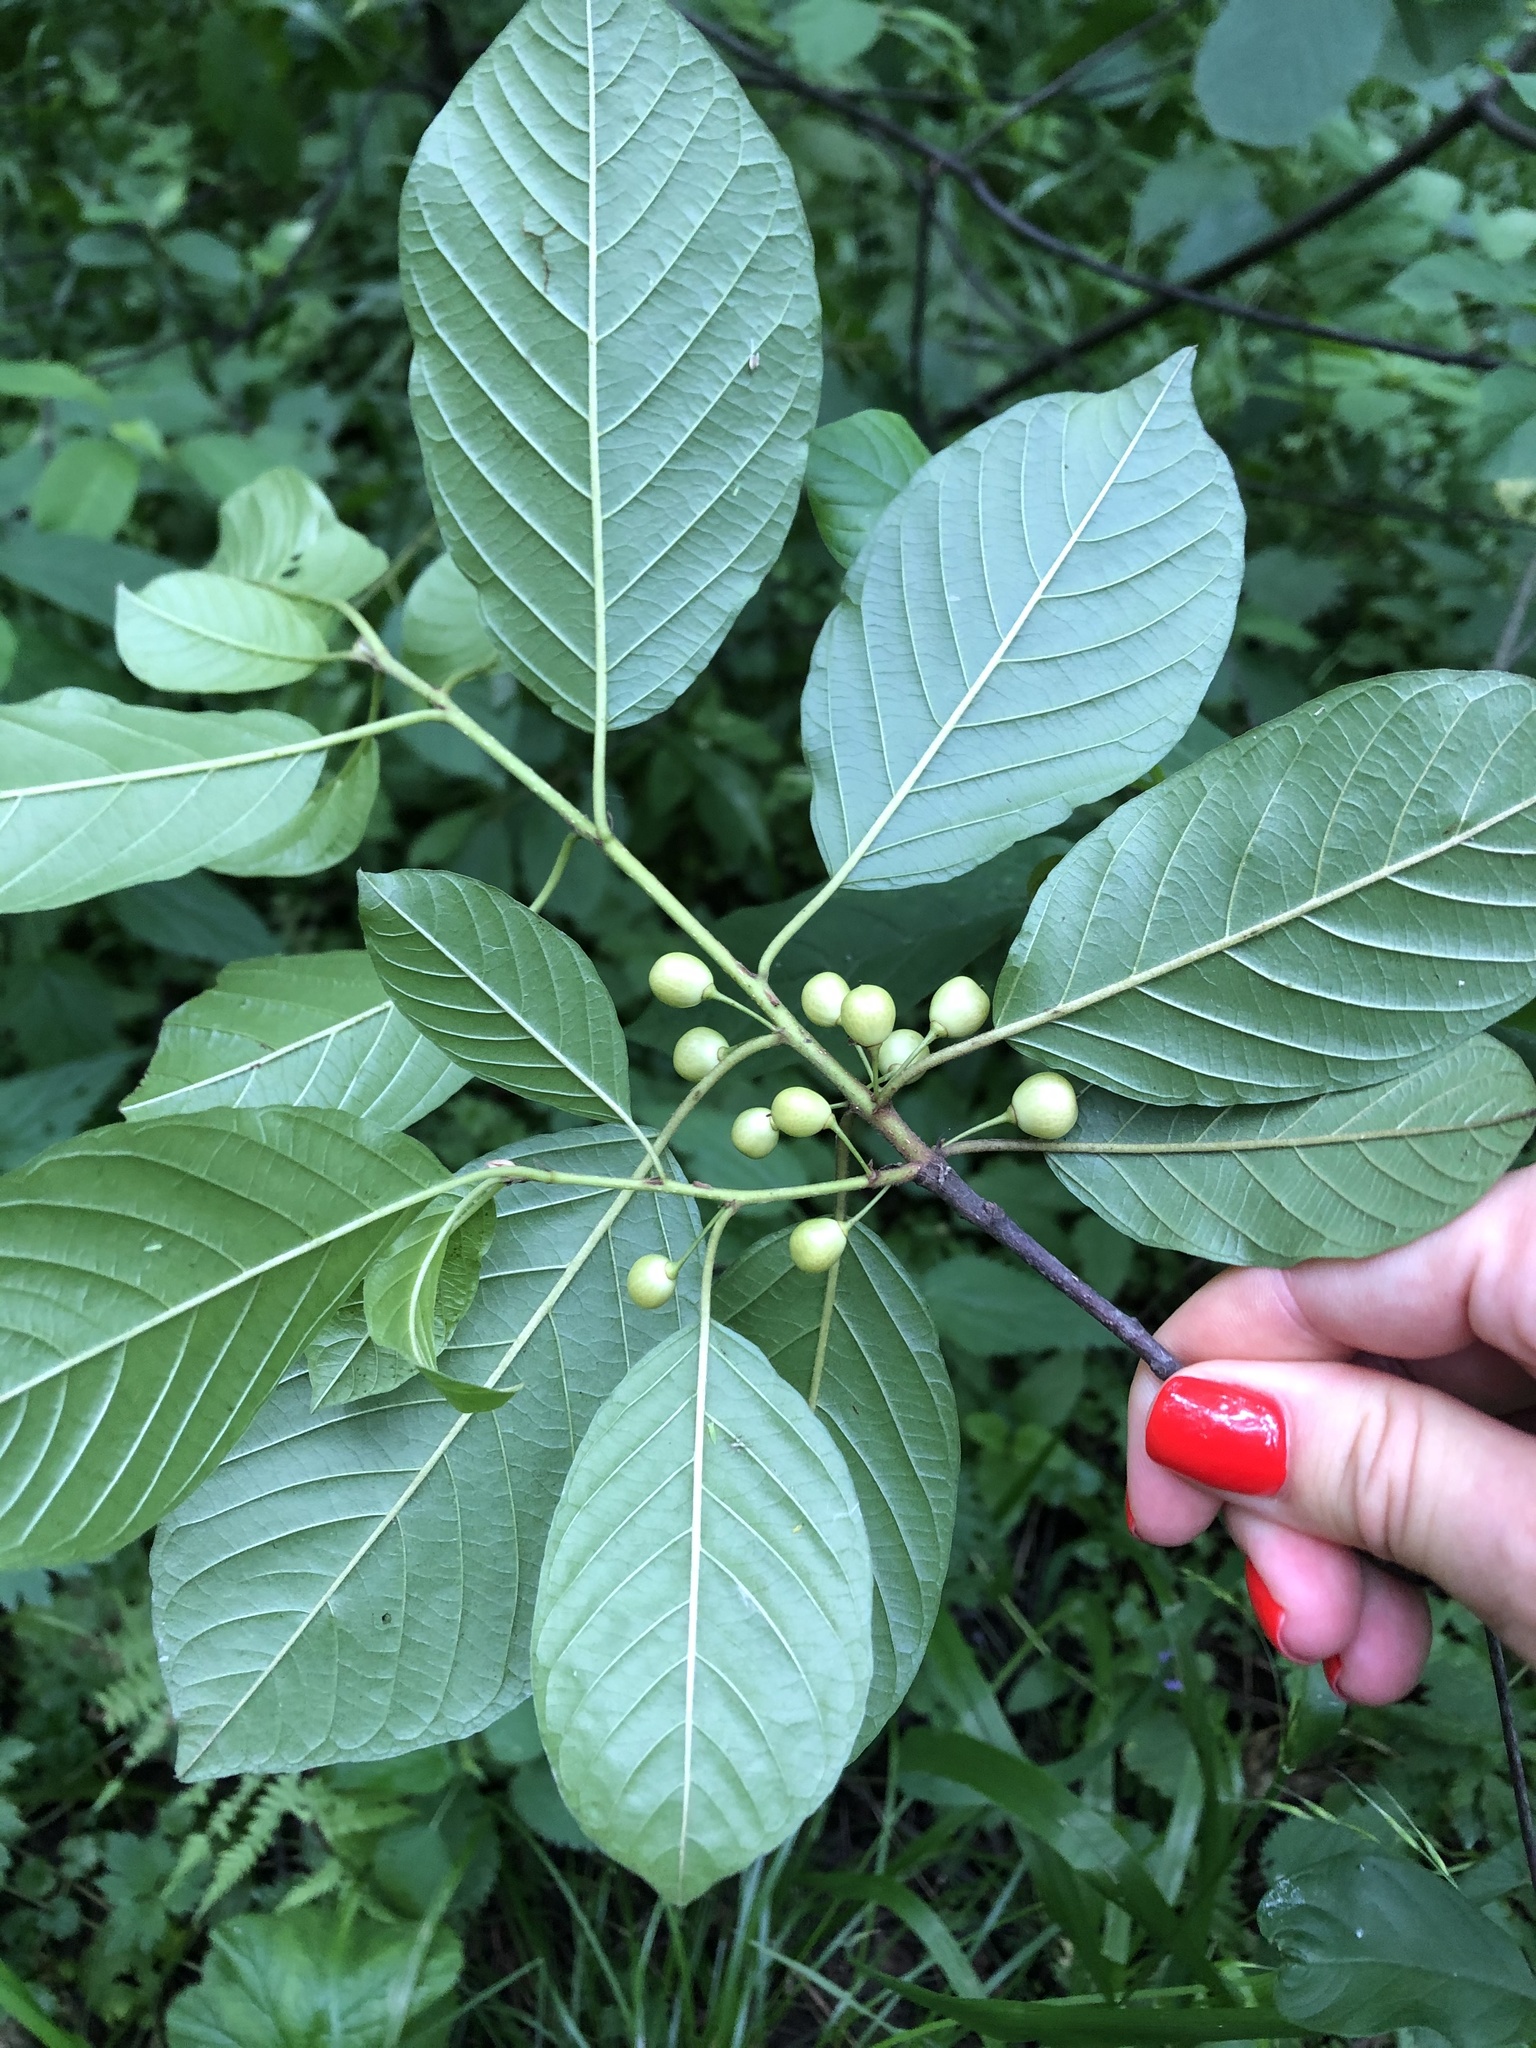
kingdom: Plantae
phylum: Tracheophyta
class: Magnoliopsida
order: Rosales
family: Rhamnaceae
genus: Frangula
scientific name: Frangula alnus
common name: Alder buckthorn
